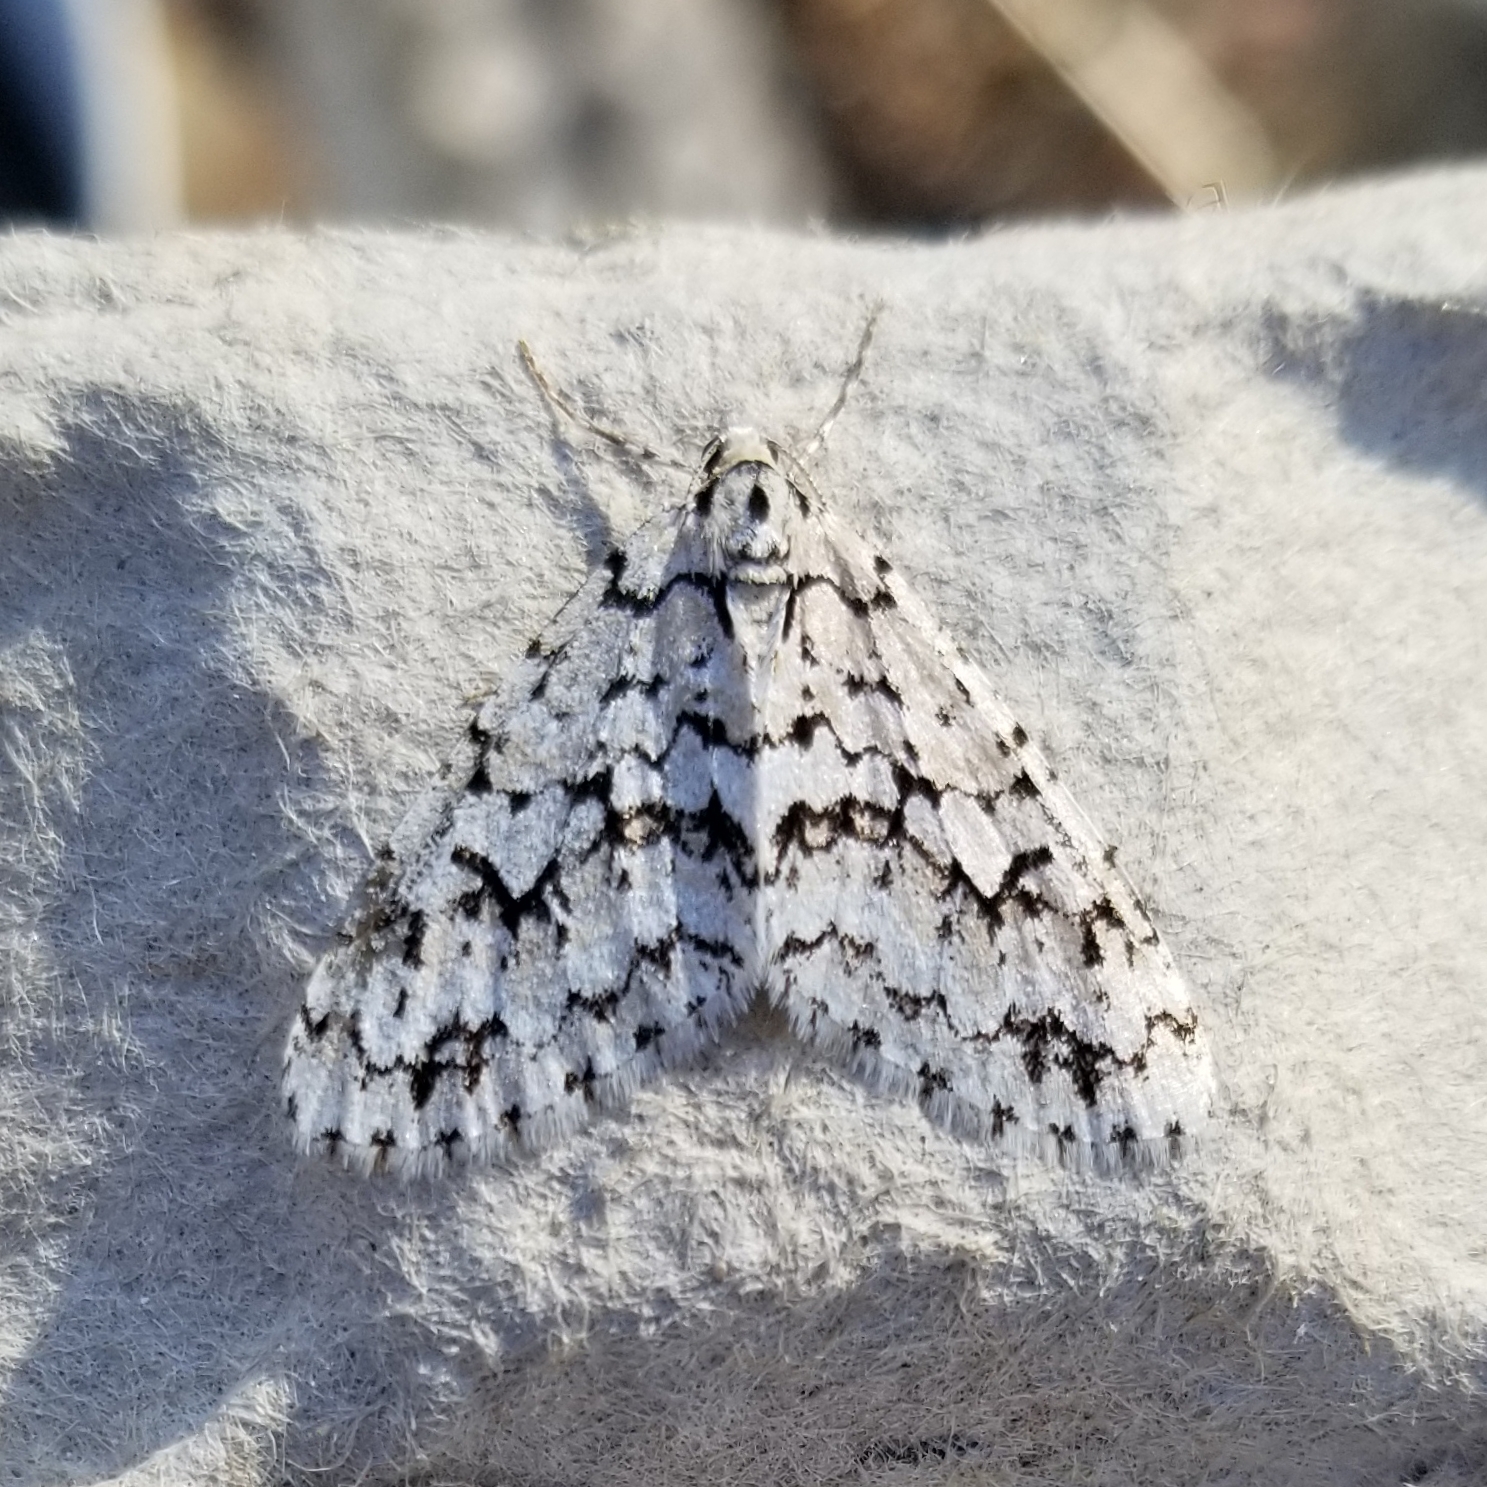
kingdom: Animalia
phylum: Arthropoda
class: Insecta
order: Lepidoptera
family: Geometridae
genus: Cladara
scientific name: Cladara atroliturata
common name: Scribbler
